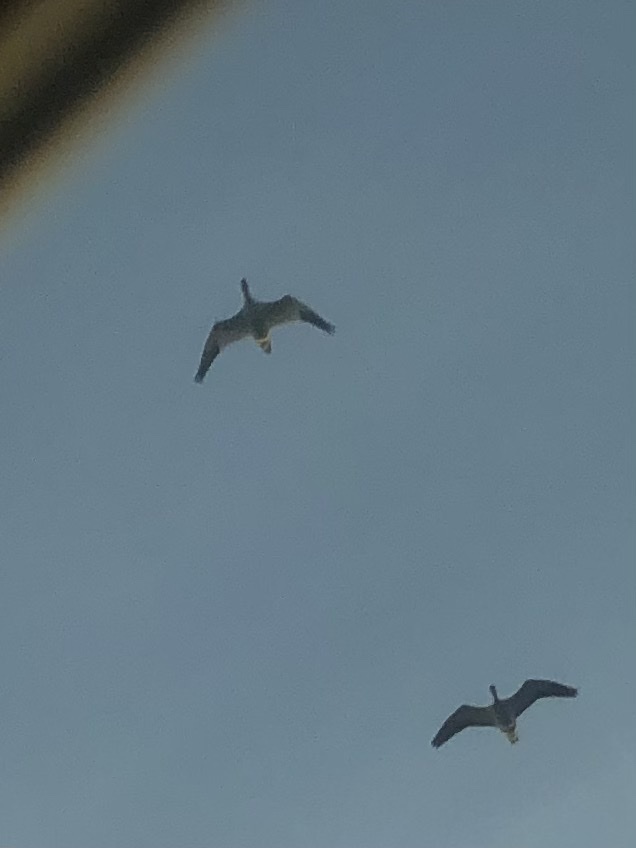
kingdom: Animalia
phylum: Chordata
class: Aves
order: Anseriformes
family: Anatidae
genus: Anser
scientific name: Anser caerulescens
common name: Snow goose
